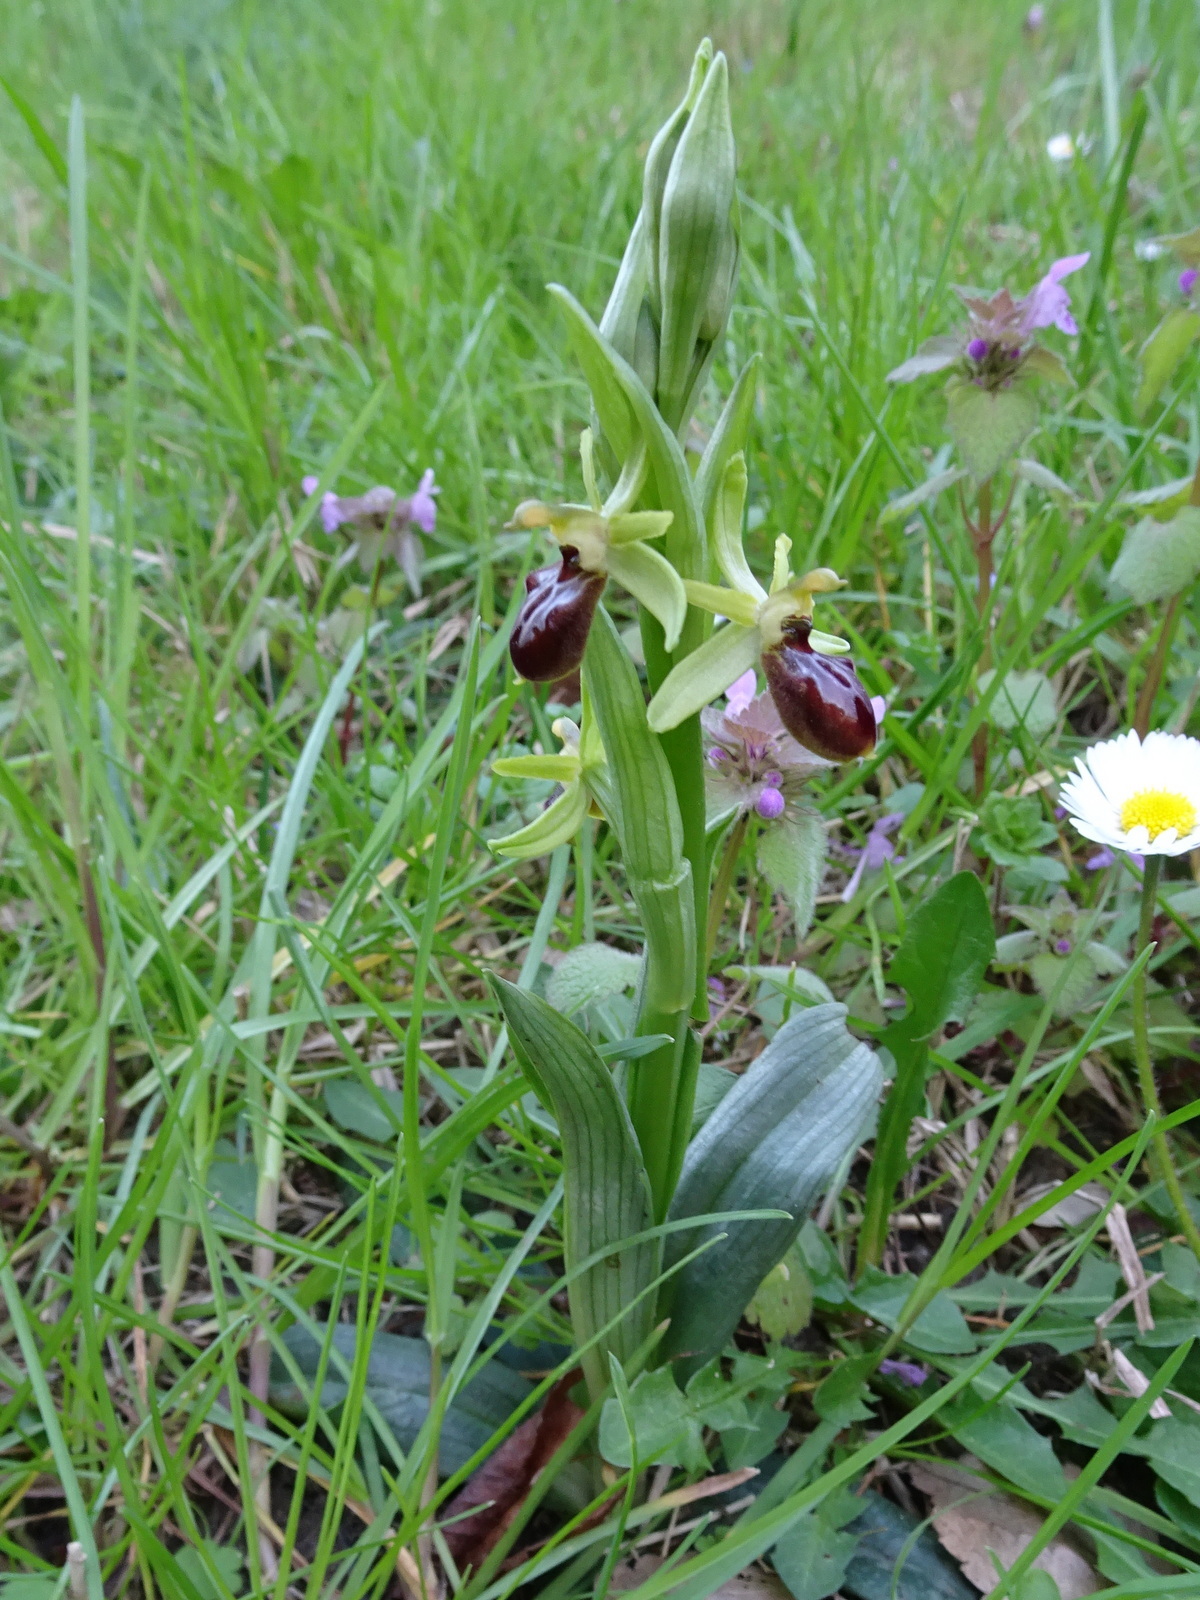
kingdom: Plantae
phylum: Tracheophyta
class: Liliopsida
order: Asparagales
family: Orchidaceae
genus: Ophrys
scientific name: Ophrys sphegodes
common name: Early spider-orchid
